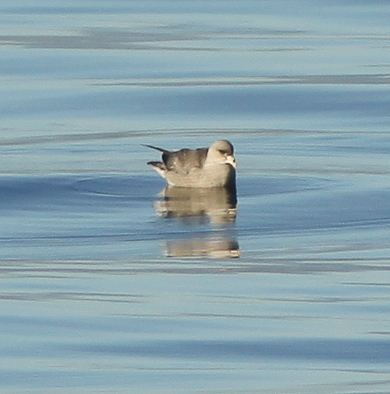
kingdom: Animalia
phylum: Chordata
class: Aves
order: Procellariiformes
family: Procellariidae
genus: Fulmarus
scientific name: Fulmarus glacialis
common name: Northern fulmar
